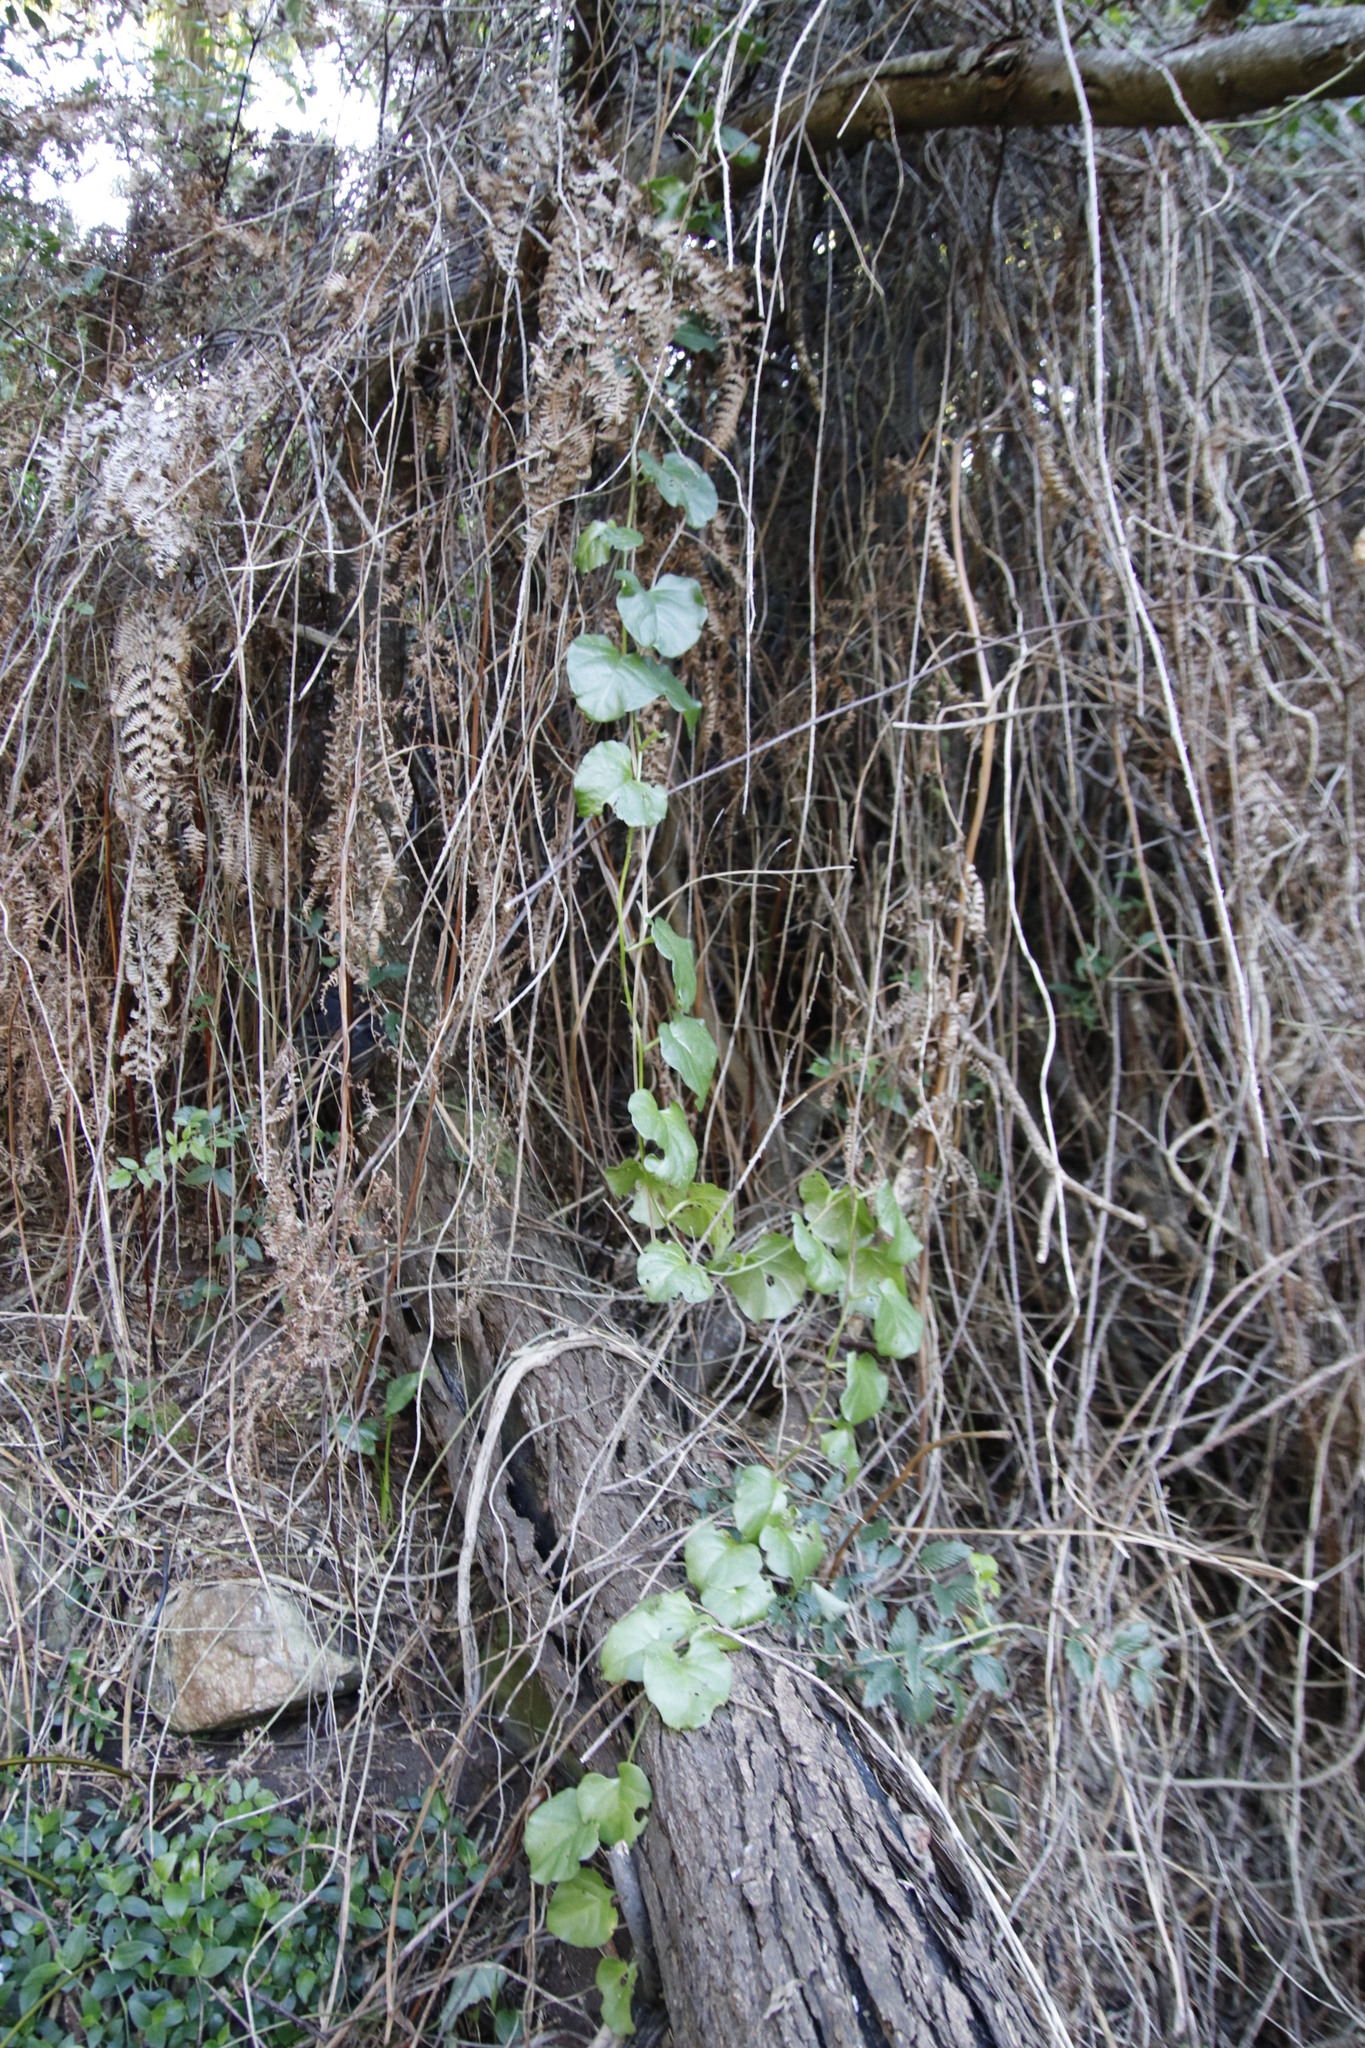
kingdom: Plantae
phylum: Tracheophyta
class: Magnoliopsida
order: Caryophyllales
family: Basellaceae
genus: Anredera
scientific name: Anredera cordifolia
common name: Heartleaf madeiravine
